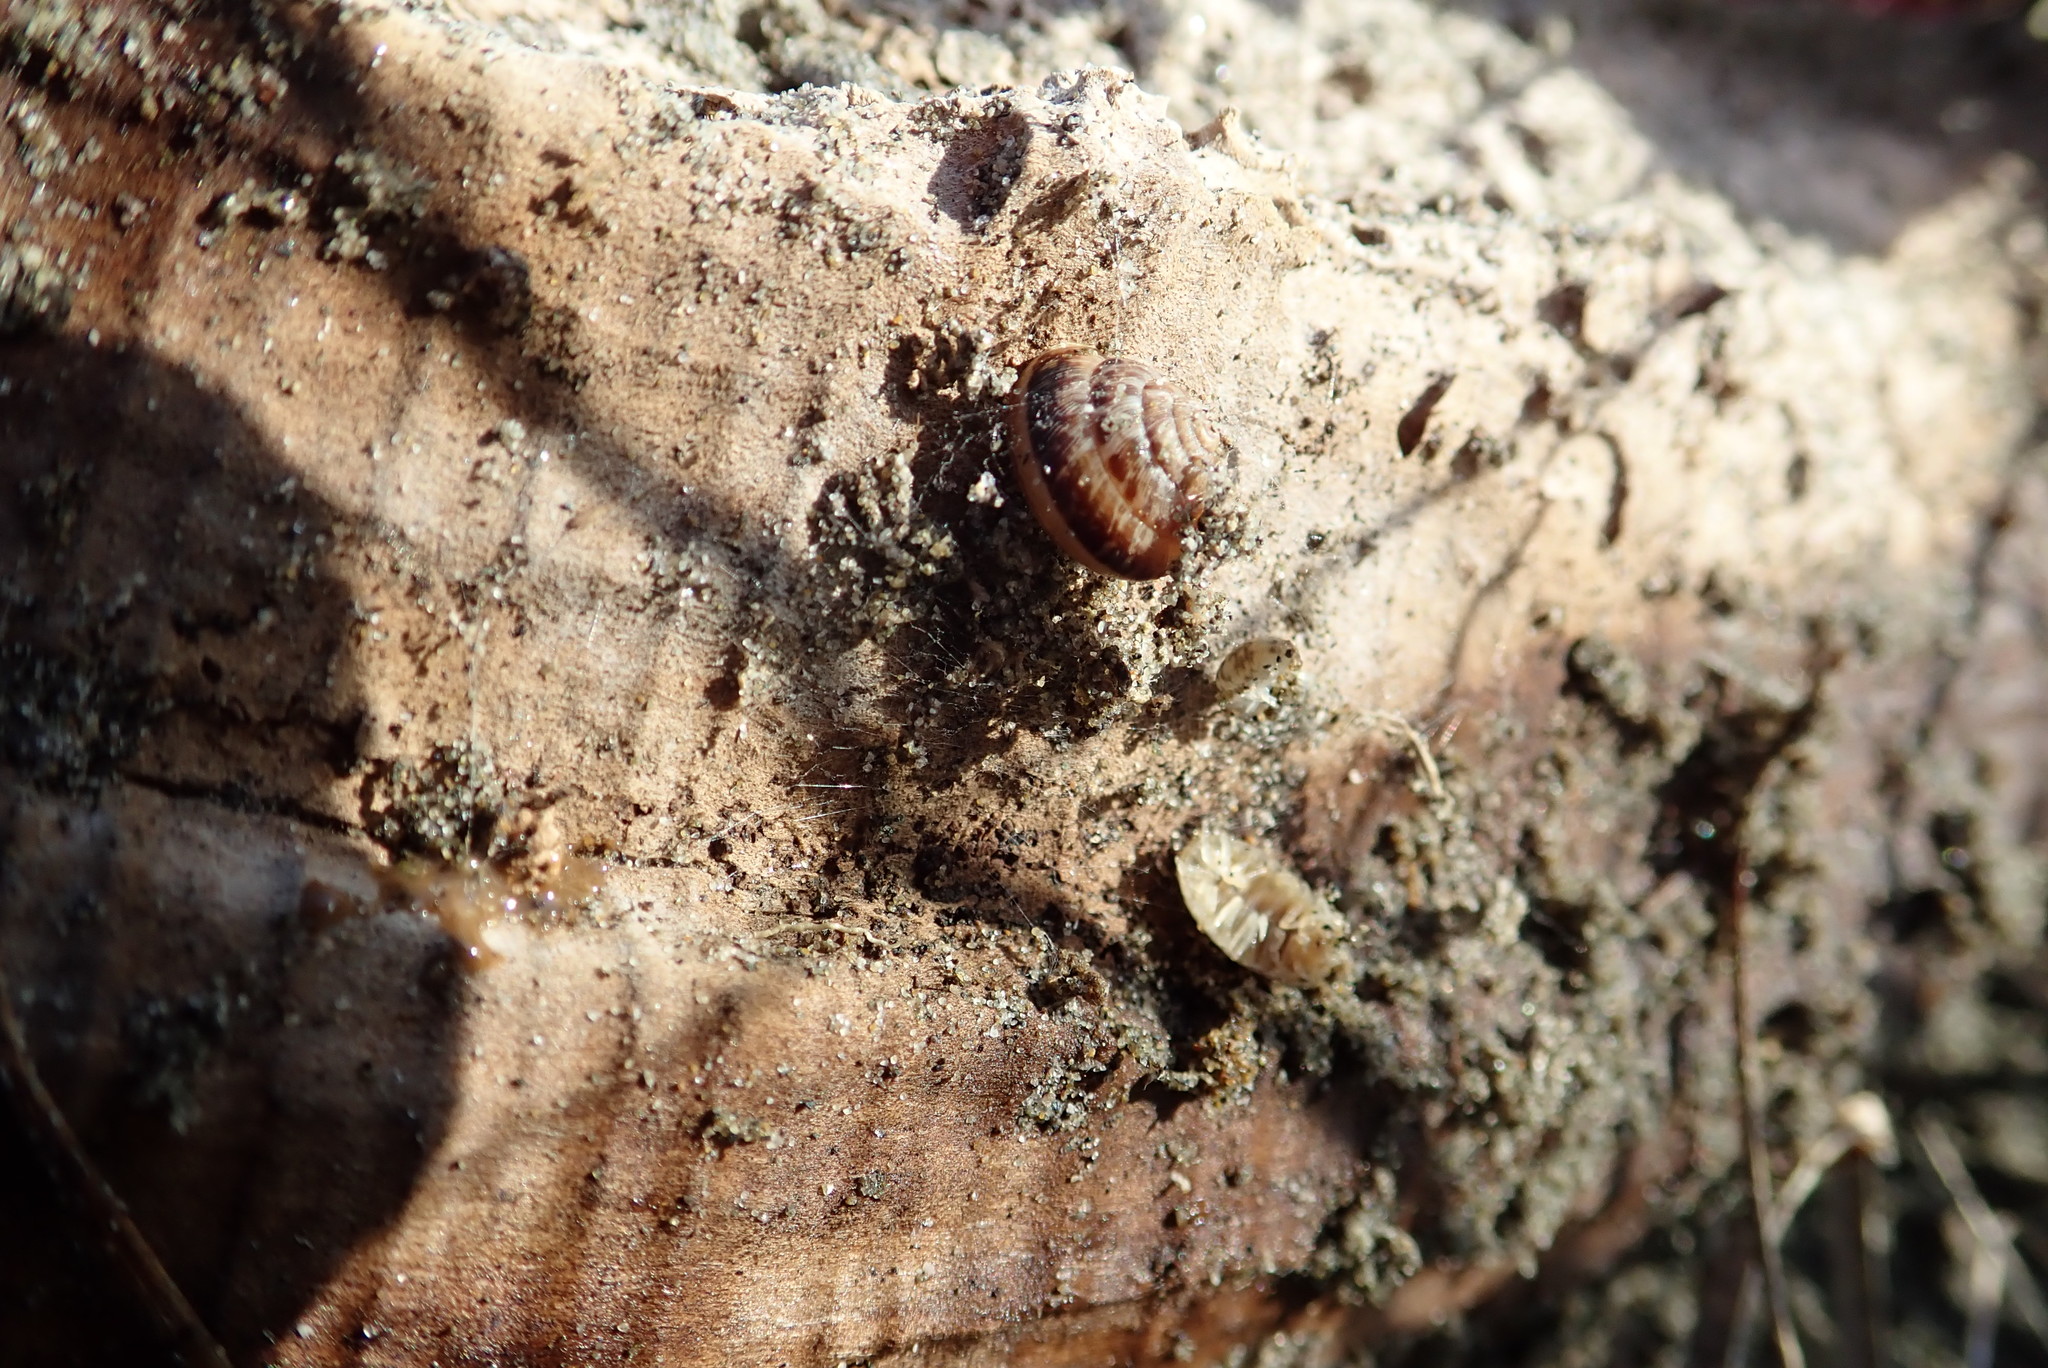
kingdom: Animalia
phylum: Mollusca
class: Gastropoda
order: Stylommatophora
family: Geomitridae
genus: Xeroplexa
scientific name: Xeroplexa intersecta
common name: Wrinkled snail
